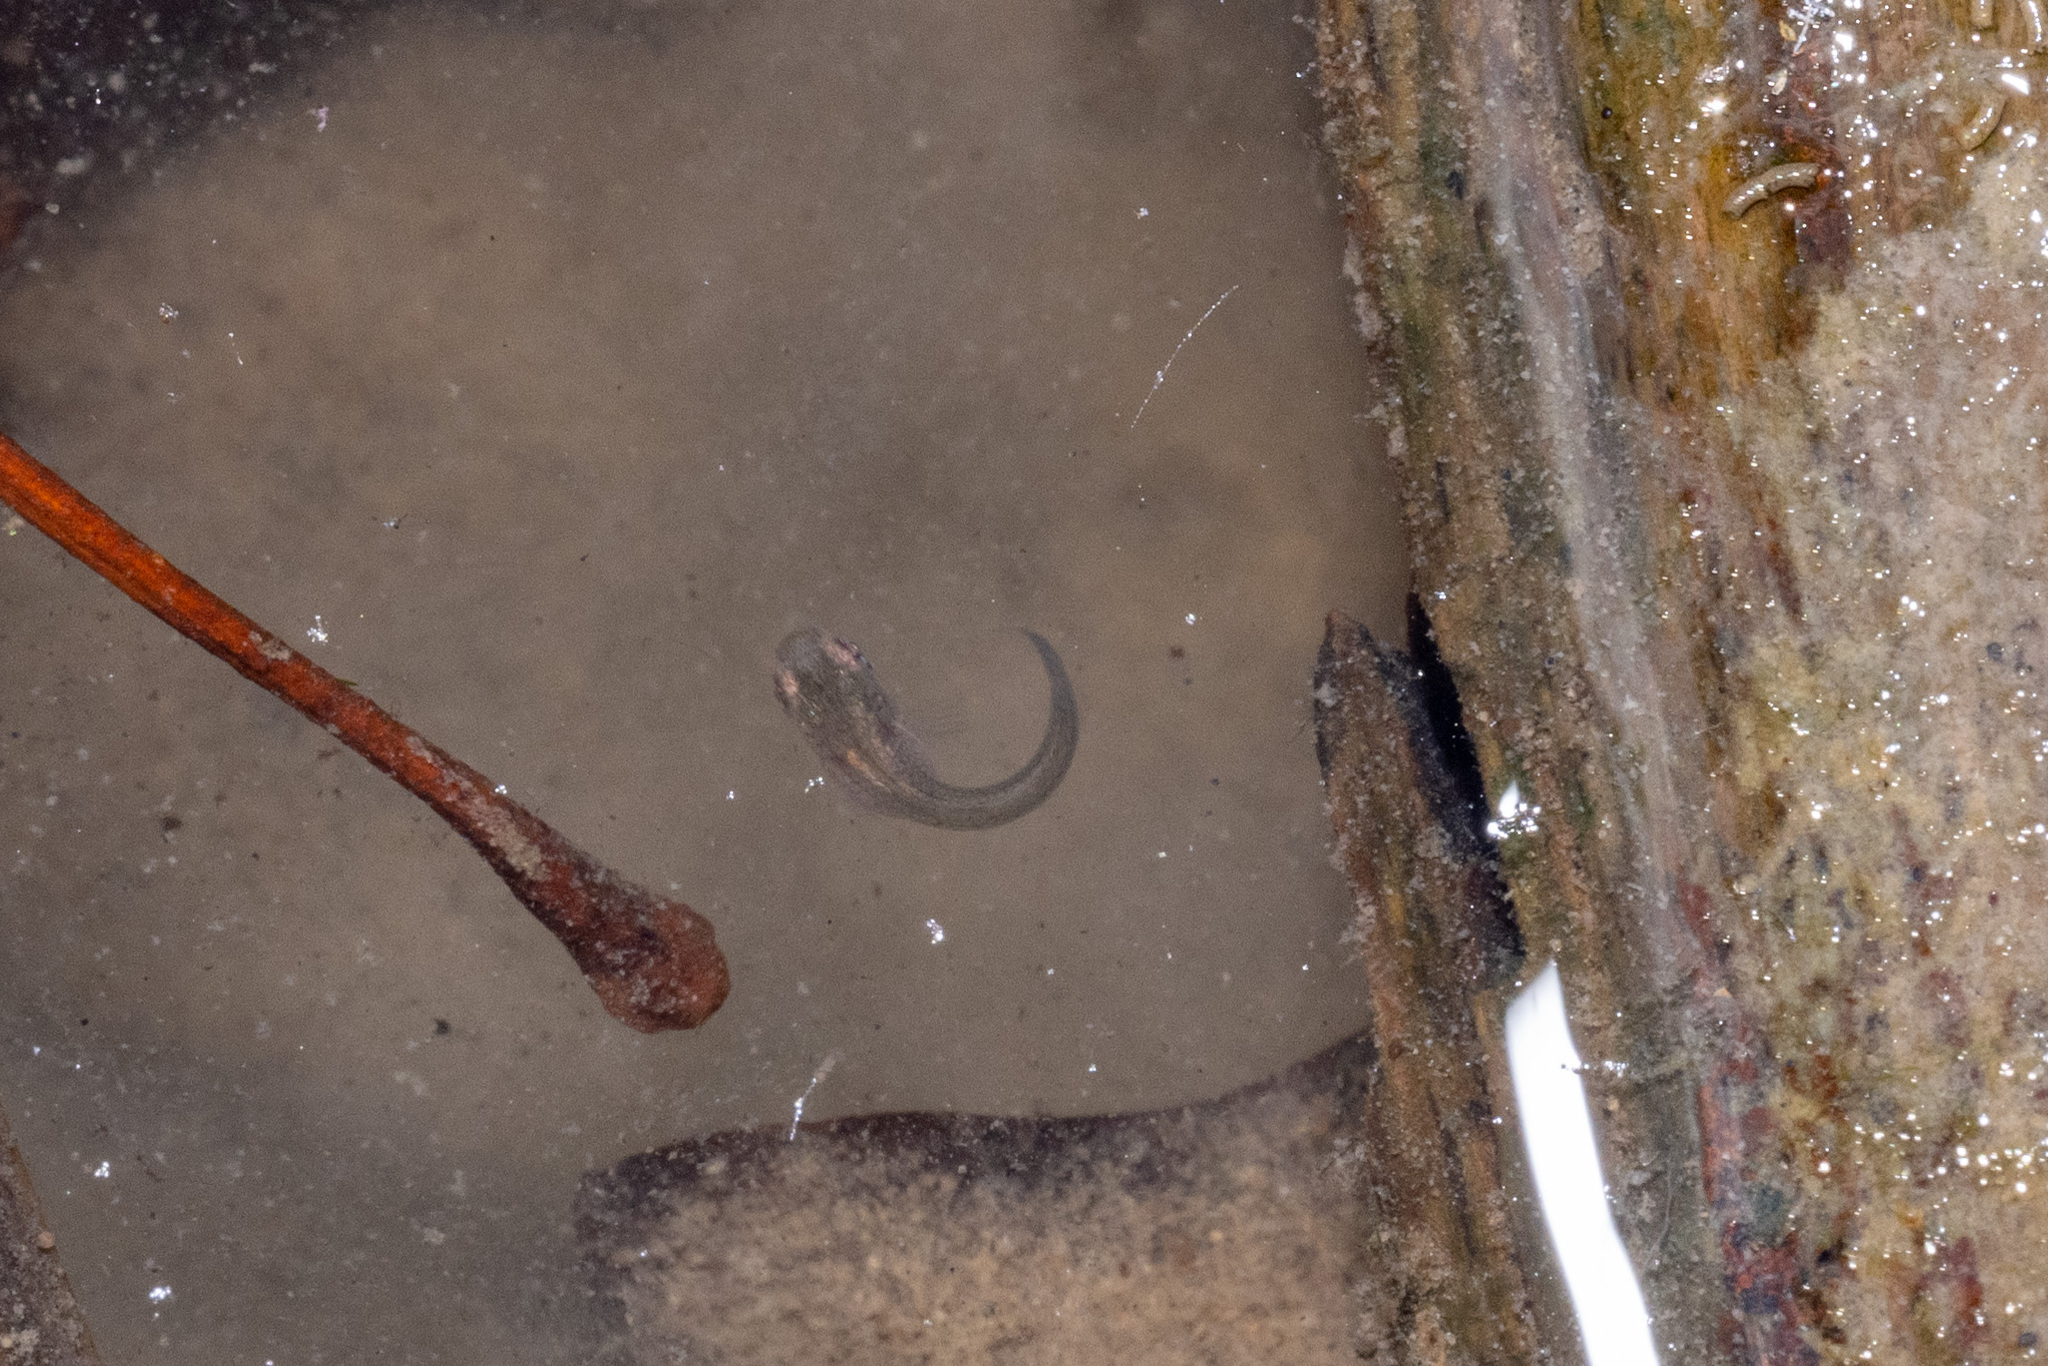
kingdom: Animalia
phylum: Chordata
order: Cyprinodontiformes
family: Poeciliidae
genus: Gambusia
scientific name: Gambusia affinis
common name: Mosquitofish
